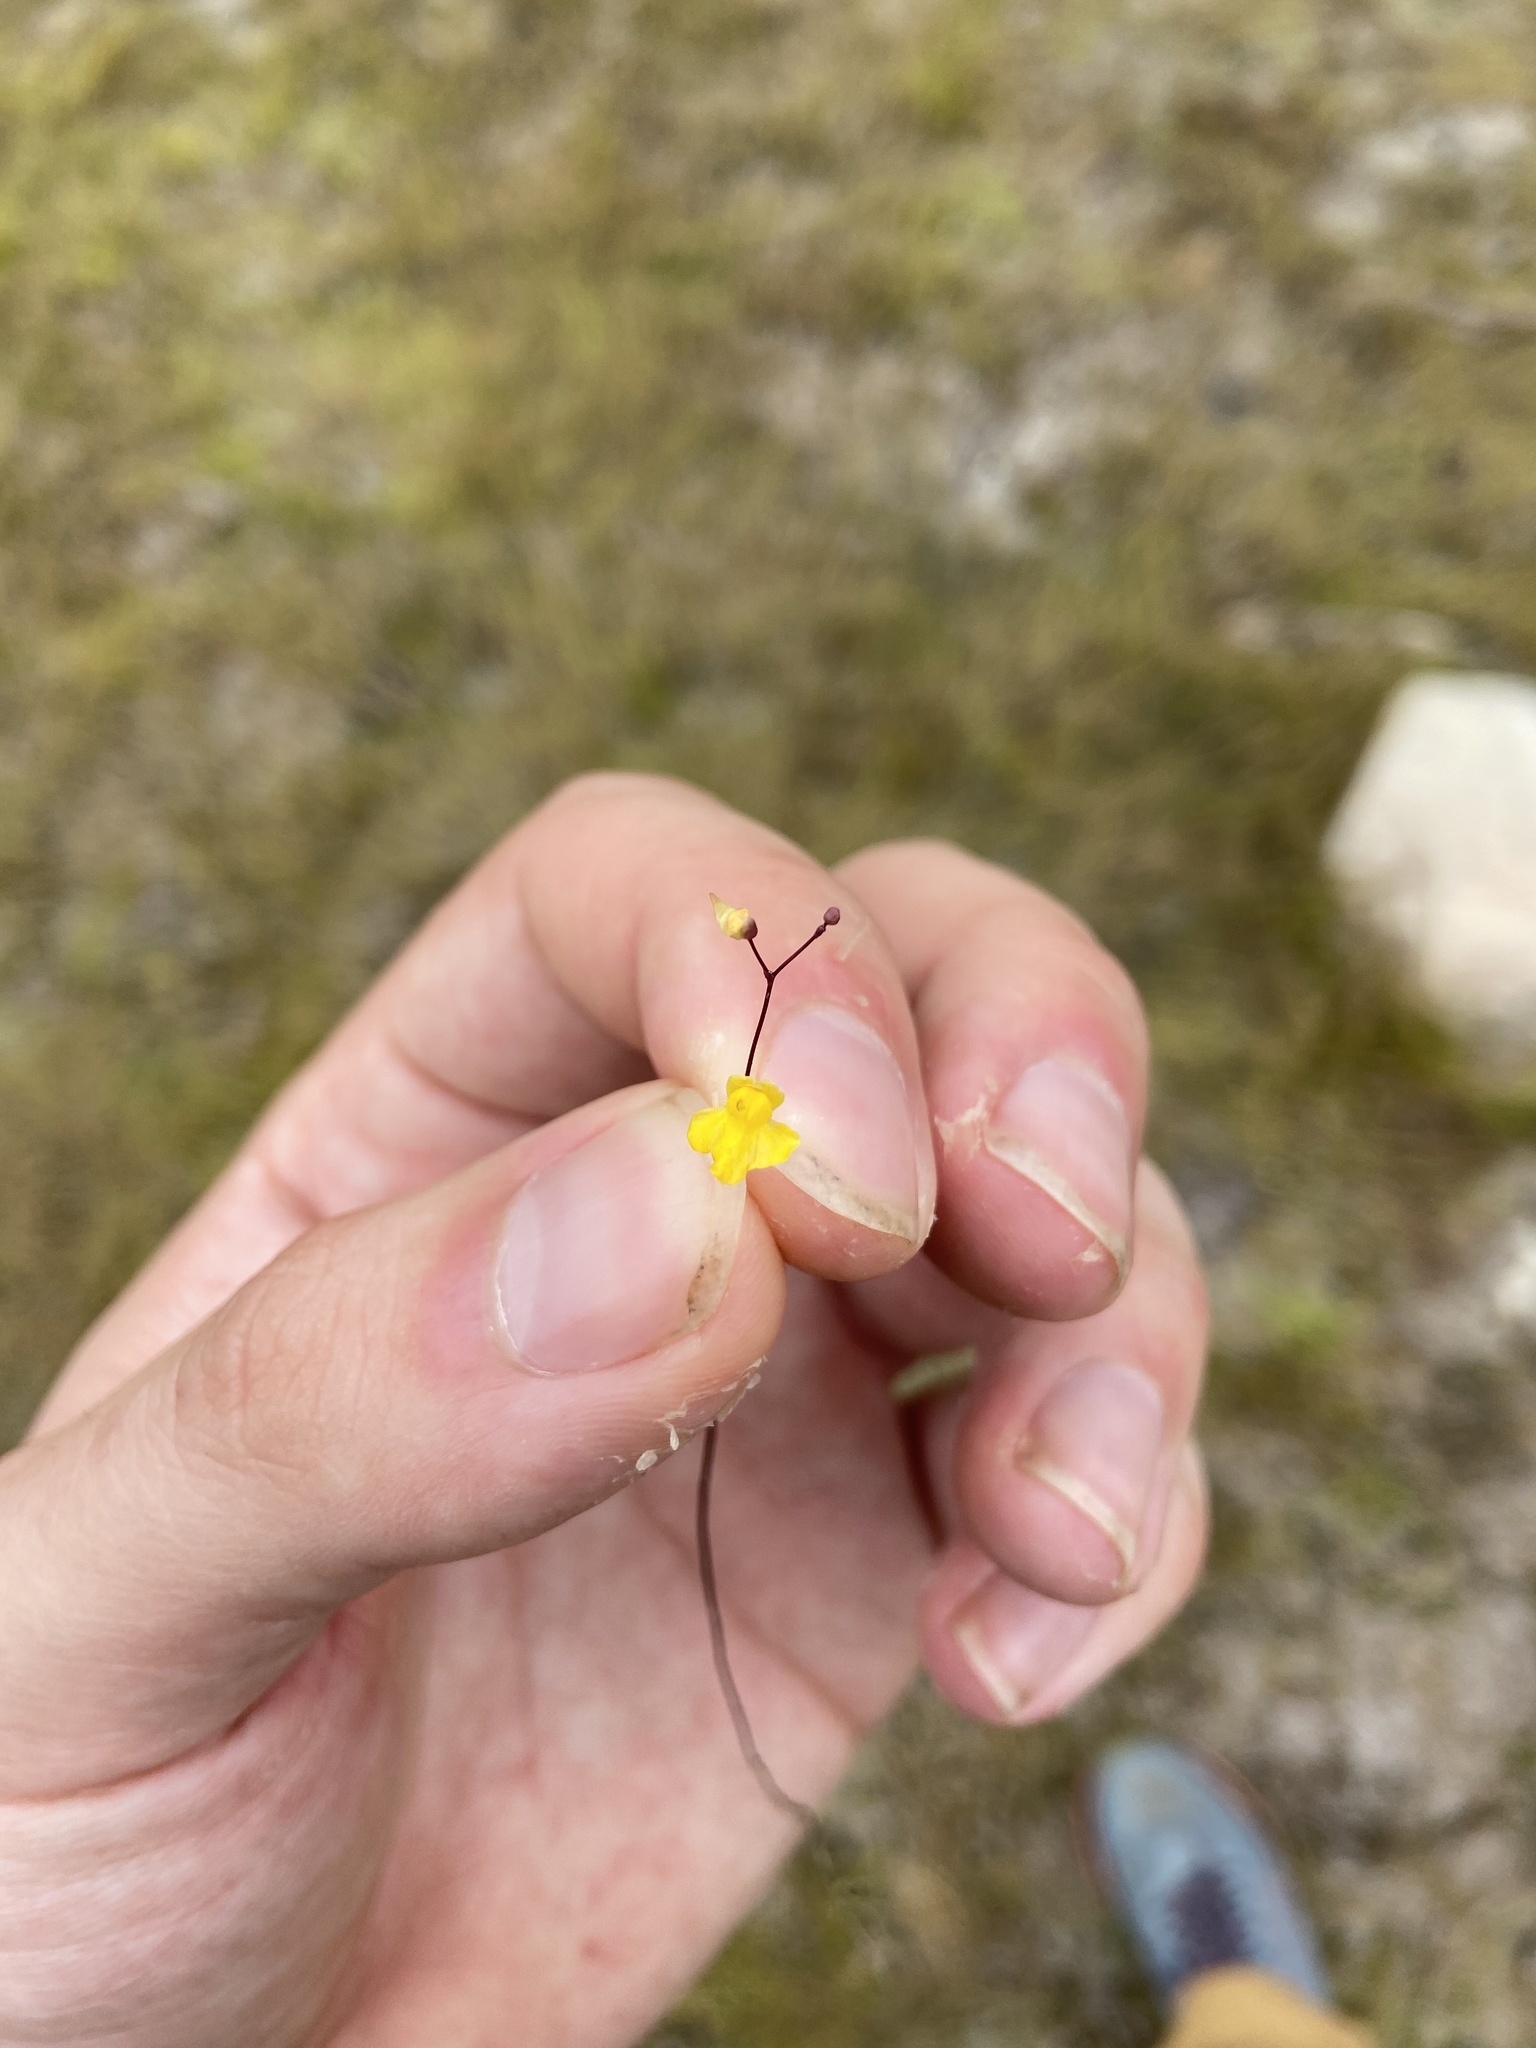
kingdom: Plantae
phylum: Tracheophyta
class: Magnoliopsida
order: Lamiales
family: Lentibulariaceae
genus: Utricularia
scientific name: Utricularia subulata
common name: Tiny bladderwort
